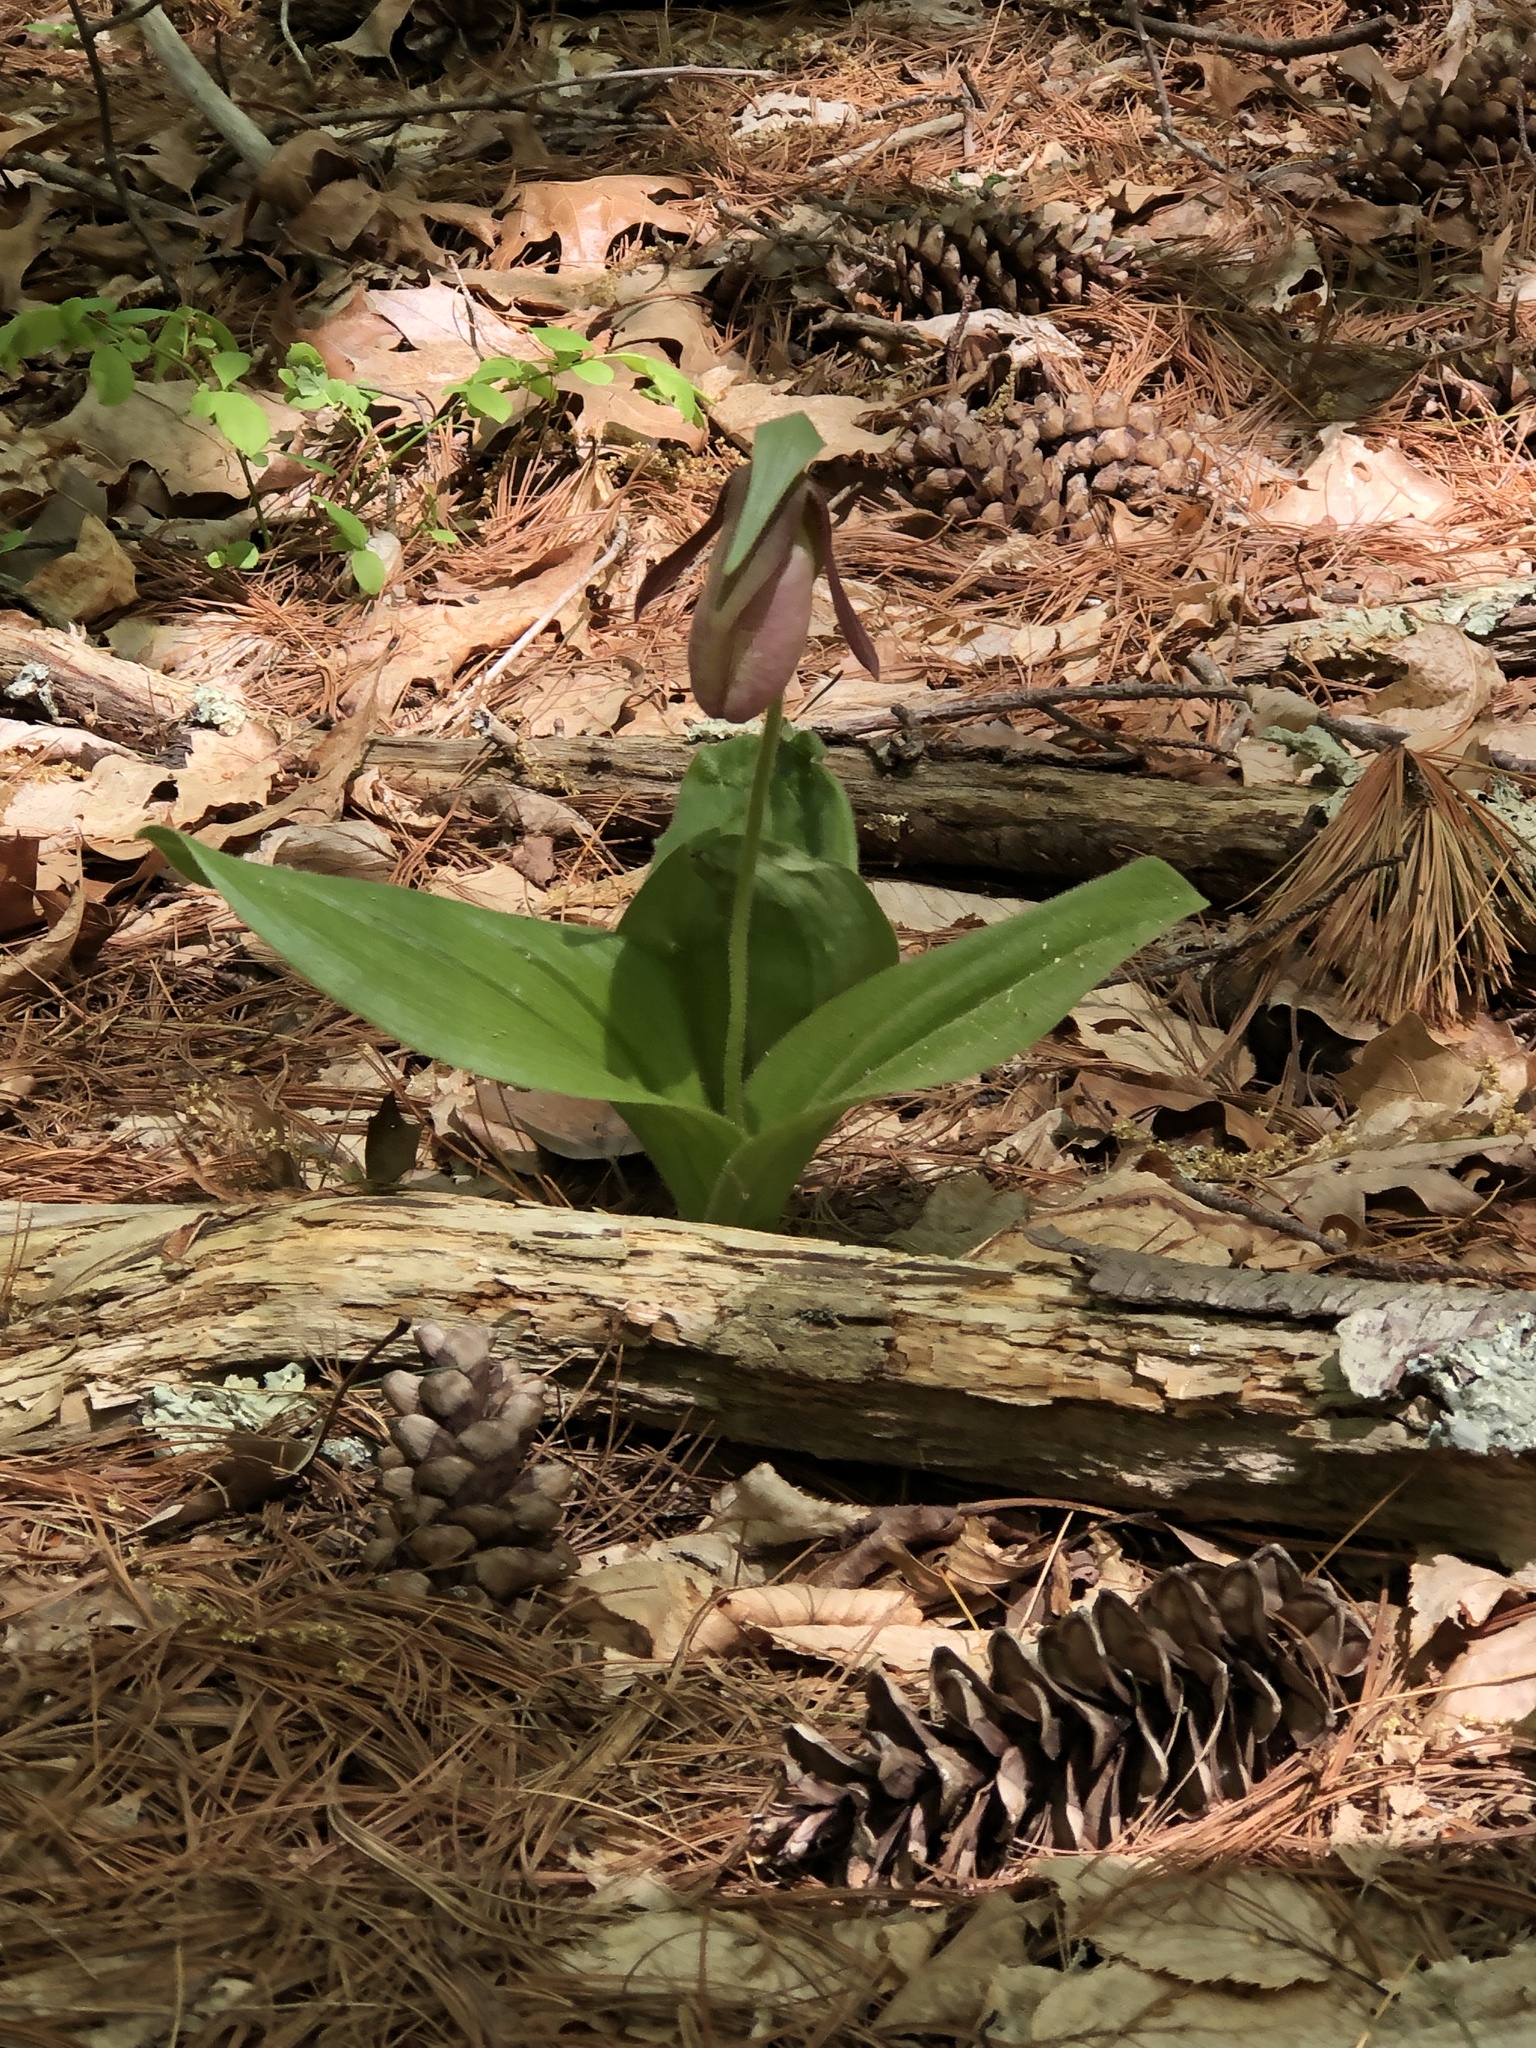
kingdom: Plantae
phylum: Tracheophyta
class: Liliopsida
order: Asparagales
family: Orchidaceae
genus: Cypripedium
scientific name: Cypripedium acaule
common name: Pink lady's-slipper
